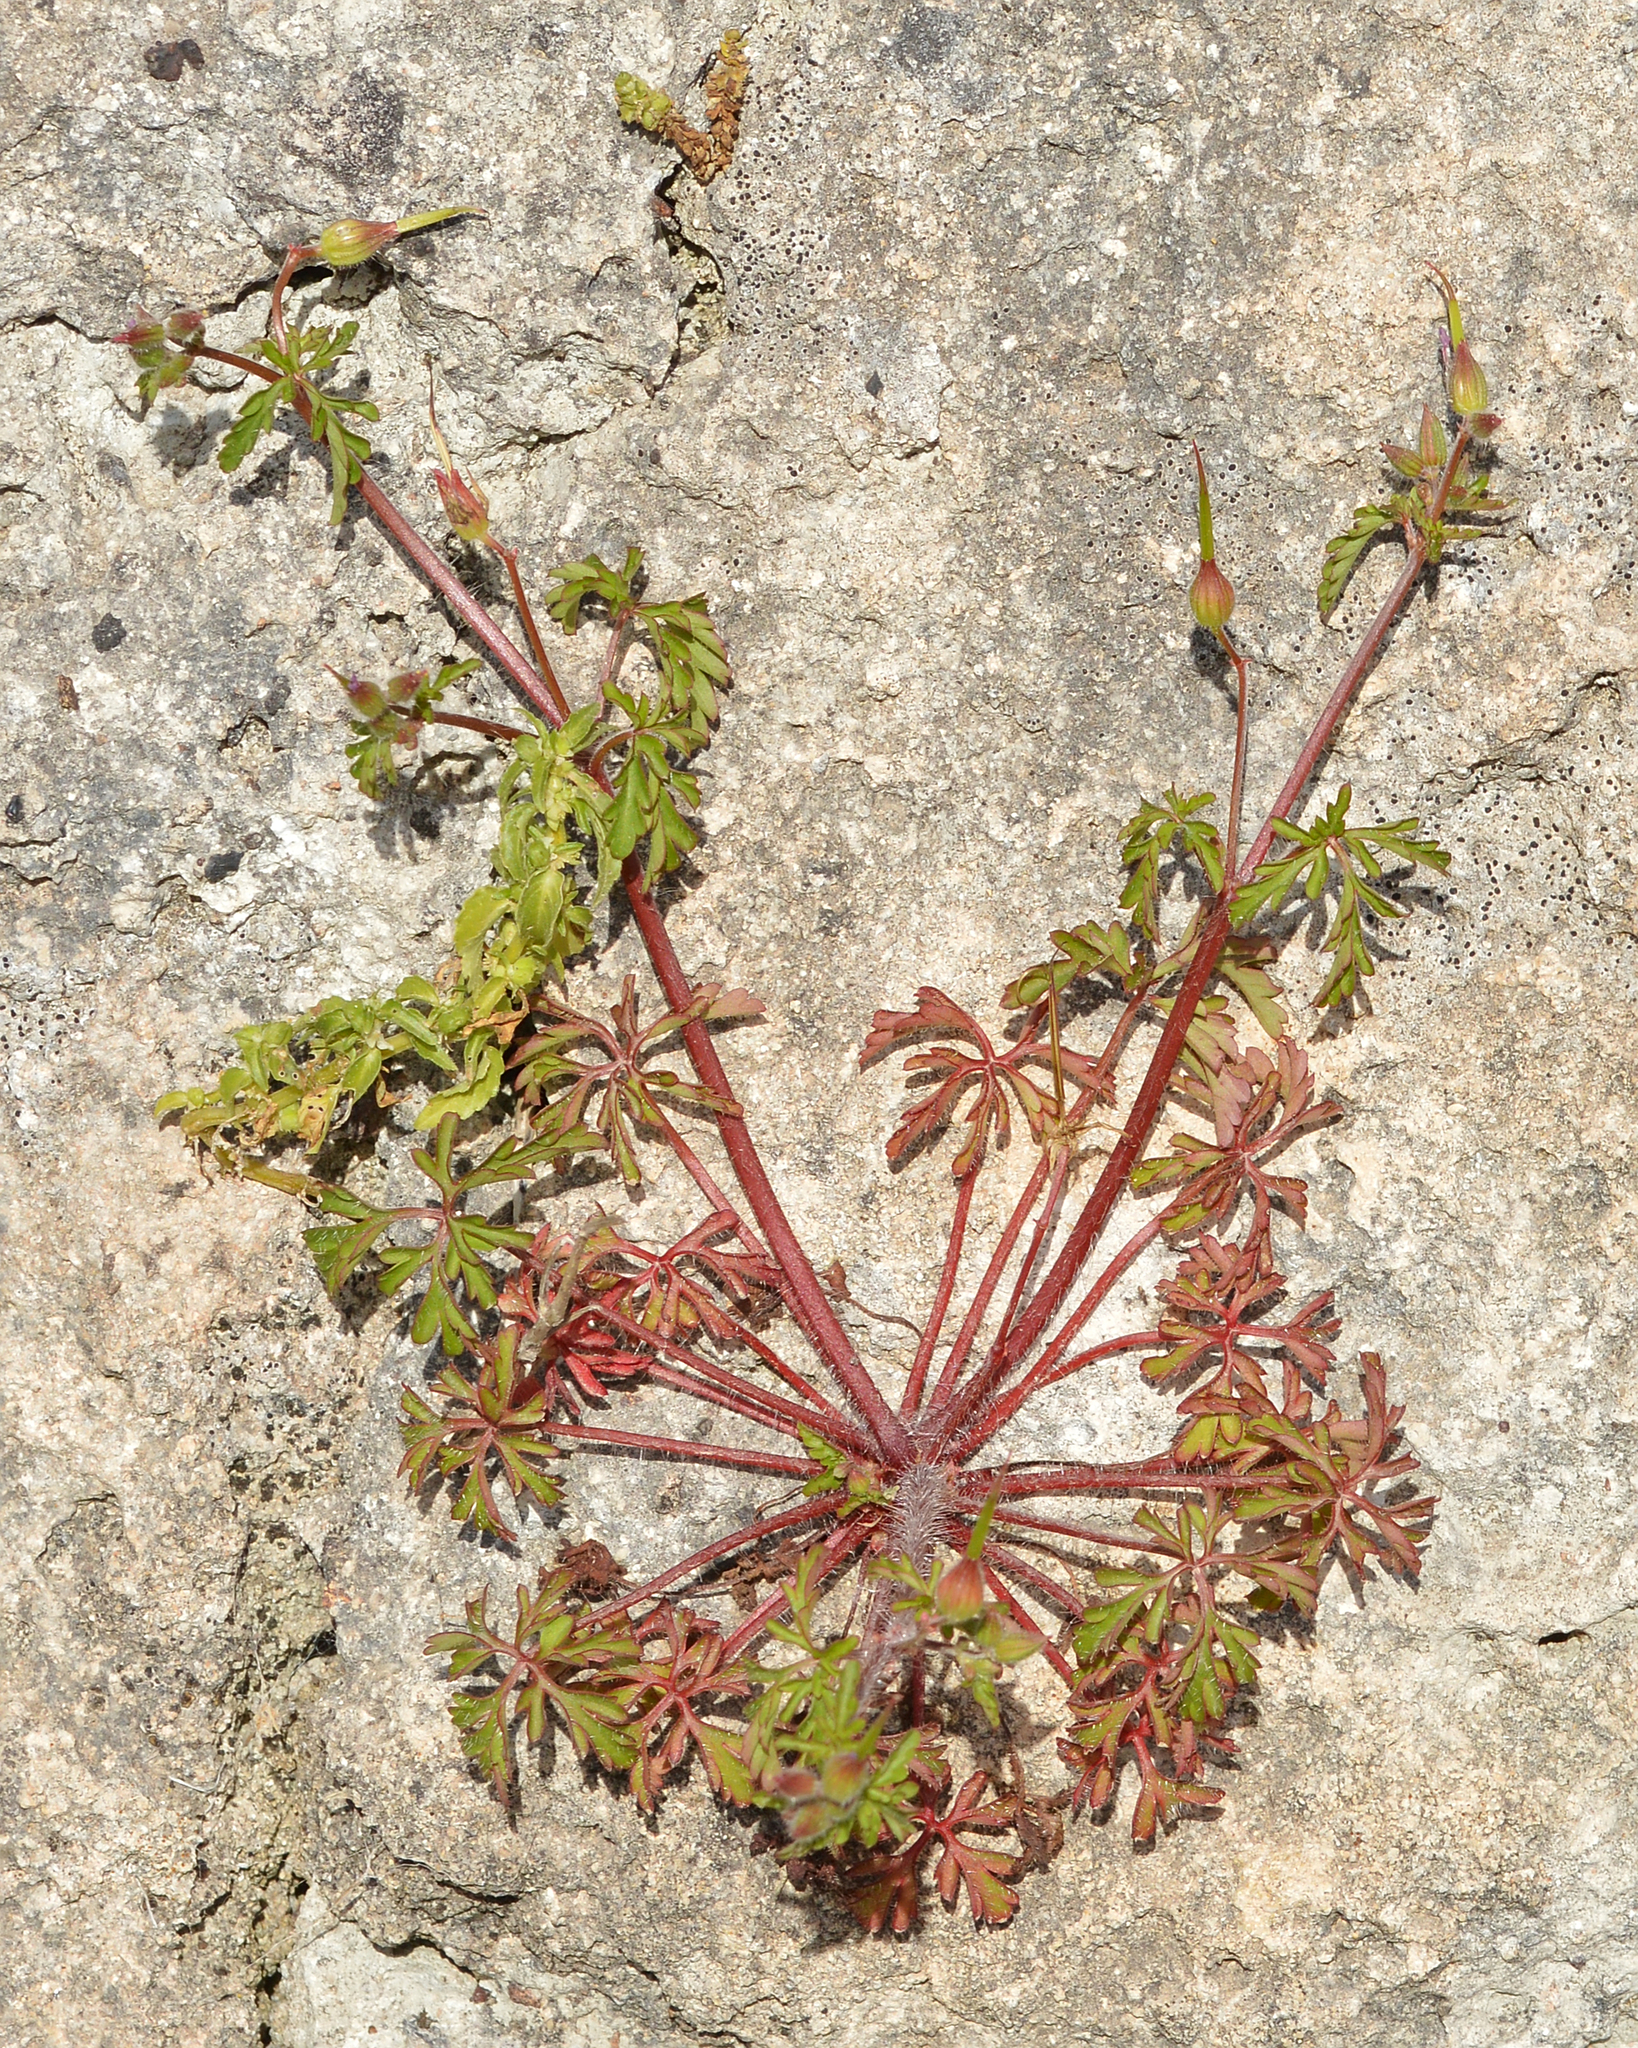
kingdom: Plantae
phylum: Tracheophyta
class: Magnoliopsida
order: Geraniales
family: Geraniaceae
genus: Geranium
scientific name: Geranium purpureum
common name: Little-robin
